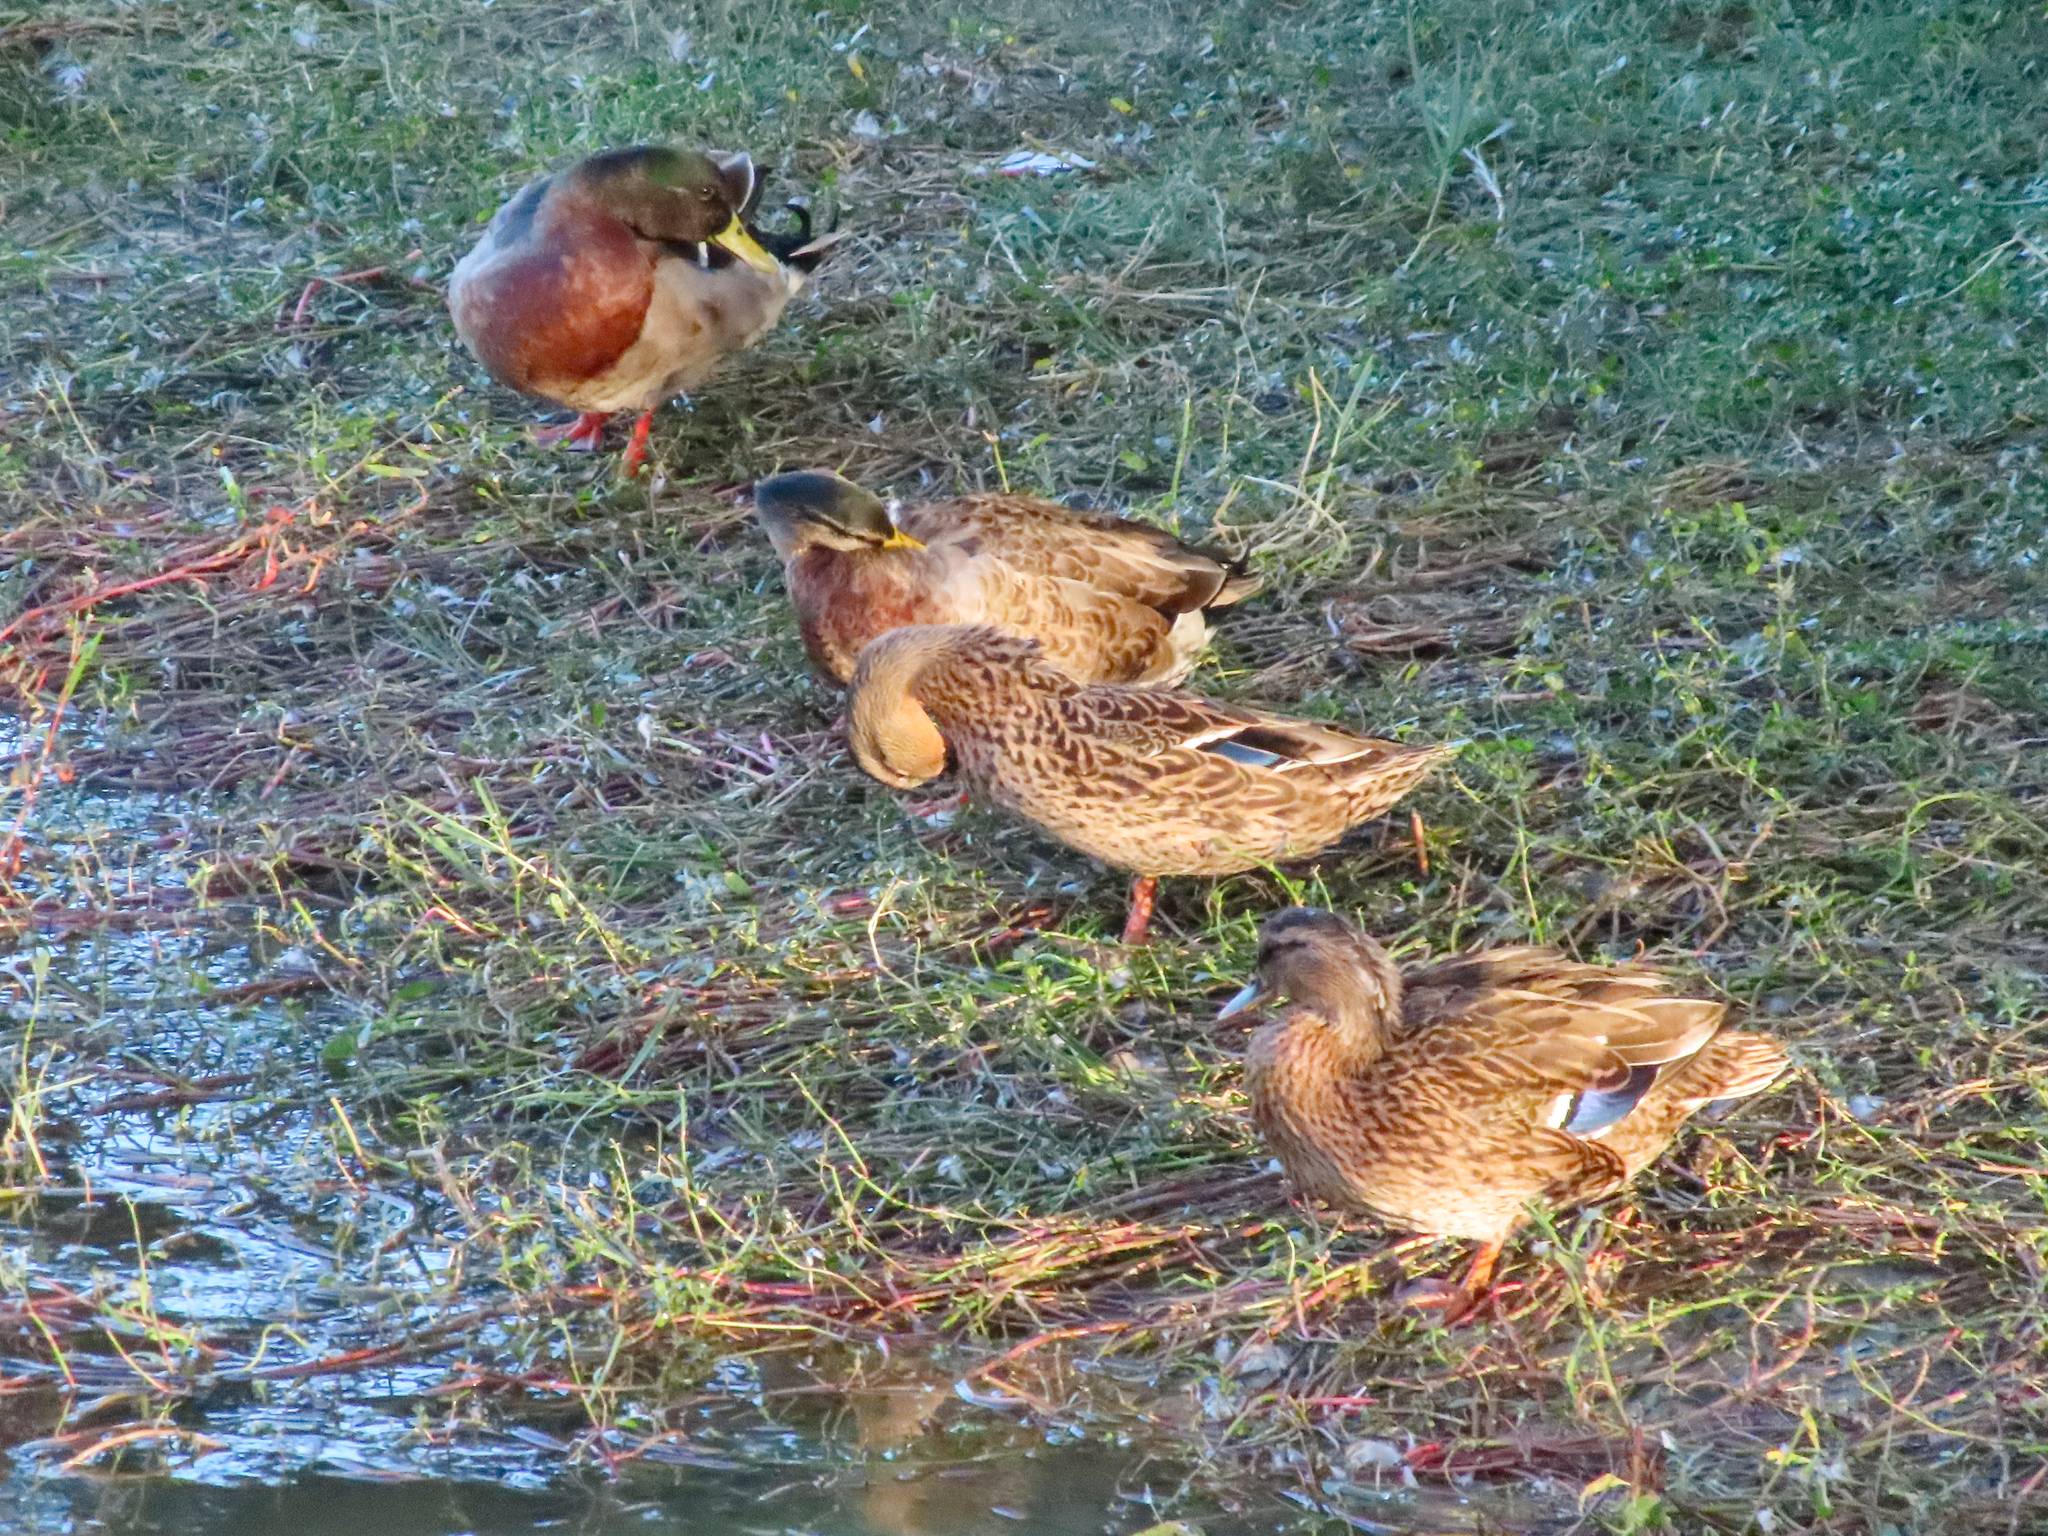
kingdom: Animalia
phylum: Chordata
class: Aves
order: Anseriformes
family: Anatidae
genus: Anas
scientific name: Anas platyrhynchos
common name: Mallard
